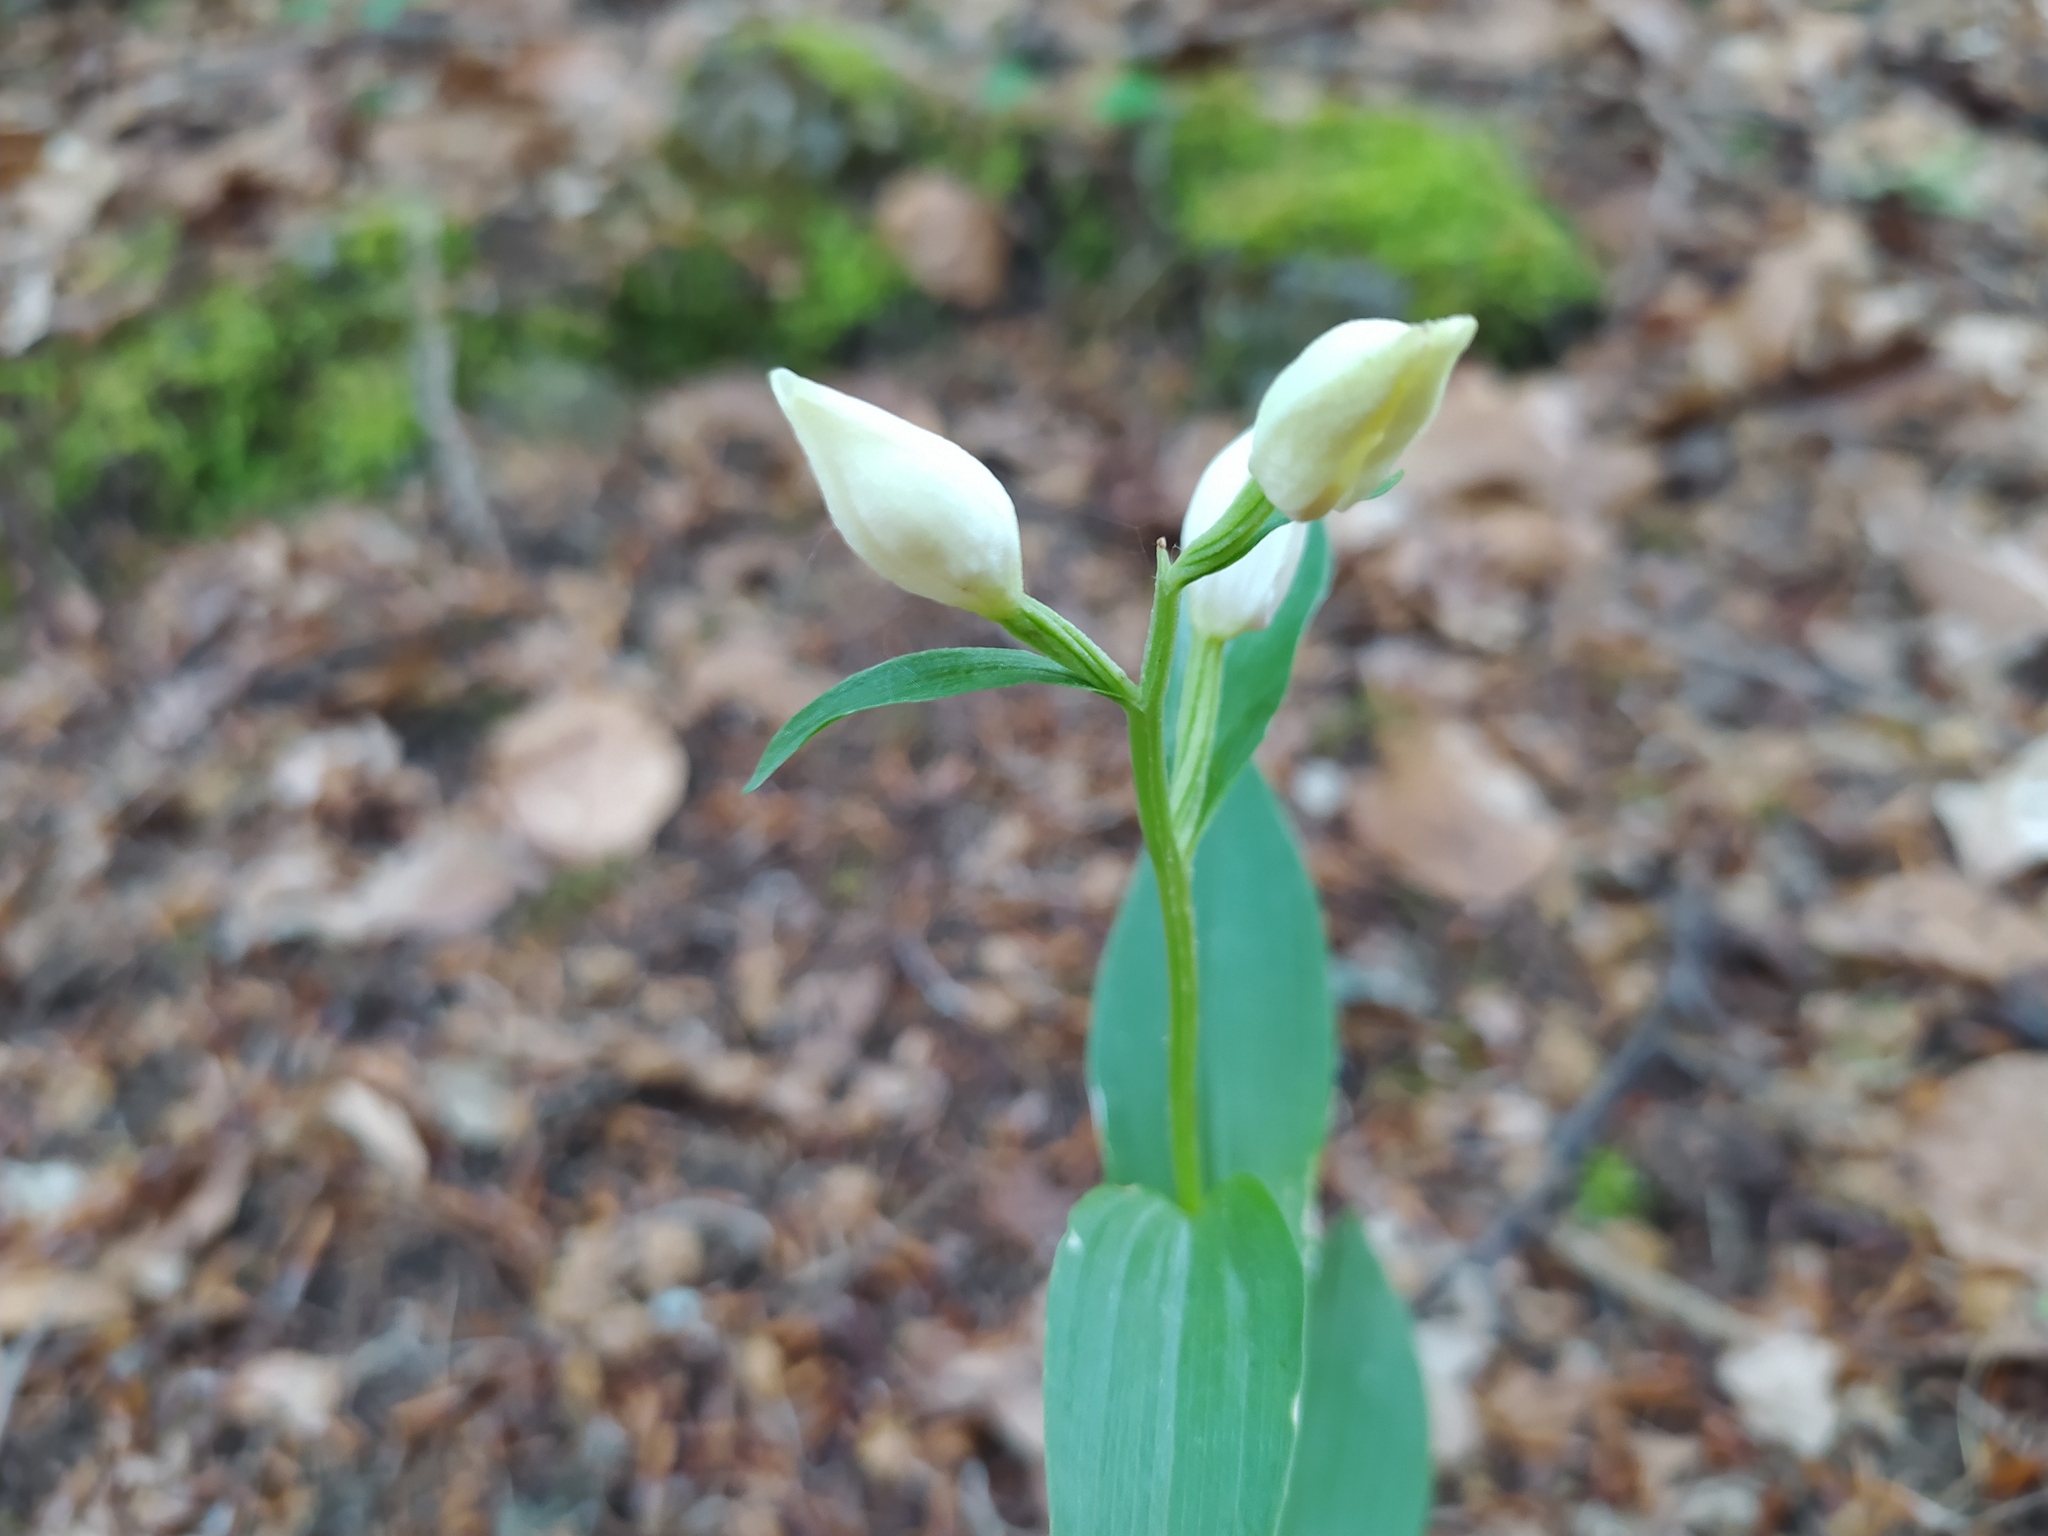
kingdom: Plantae
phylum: Tracheophyta
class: Liliopsida
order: Asparagales
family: Orchidaceae
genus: Cephalanthera
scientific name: Cephalanthera damasonium
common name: White helleborine
